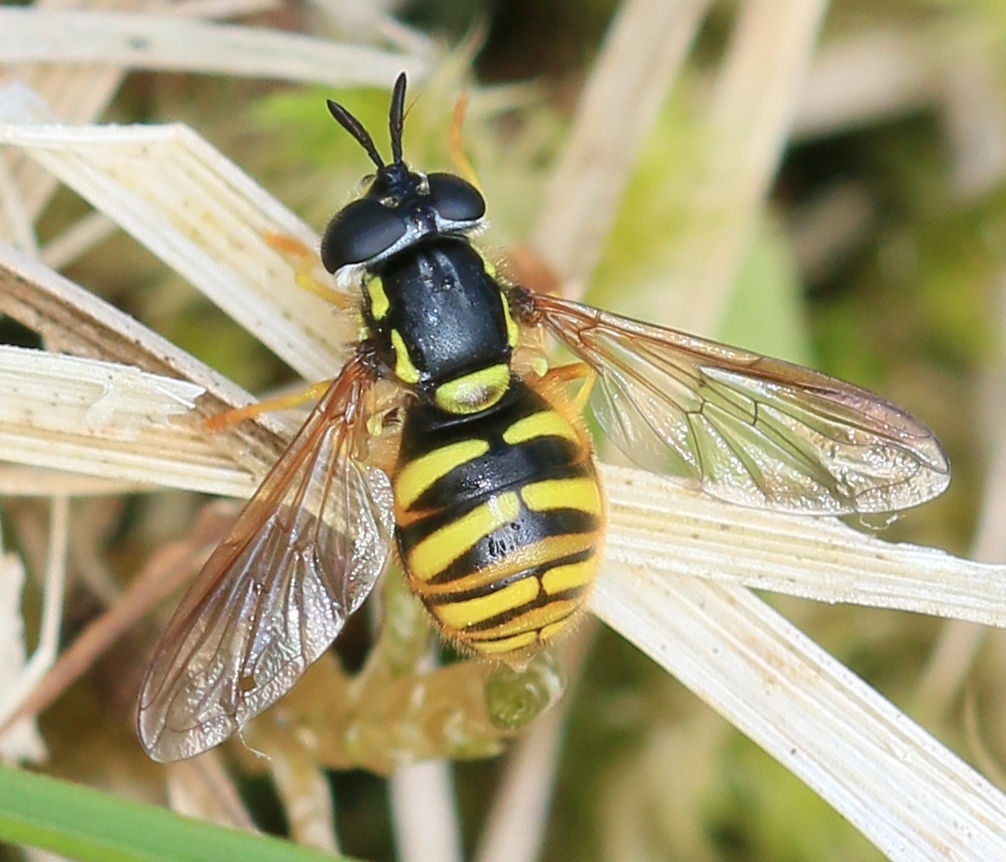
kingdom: Animalia
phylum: Arthropoda
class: Insecta
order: Diptera
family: Syrphidae
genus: Chrysotoxum
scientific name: Chrysotoxum arcuatum
